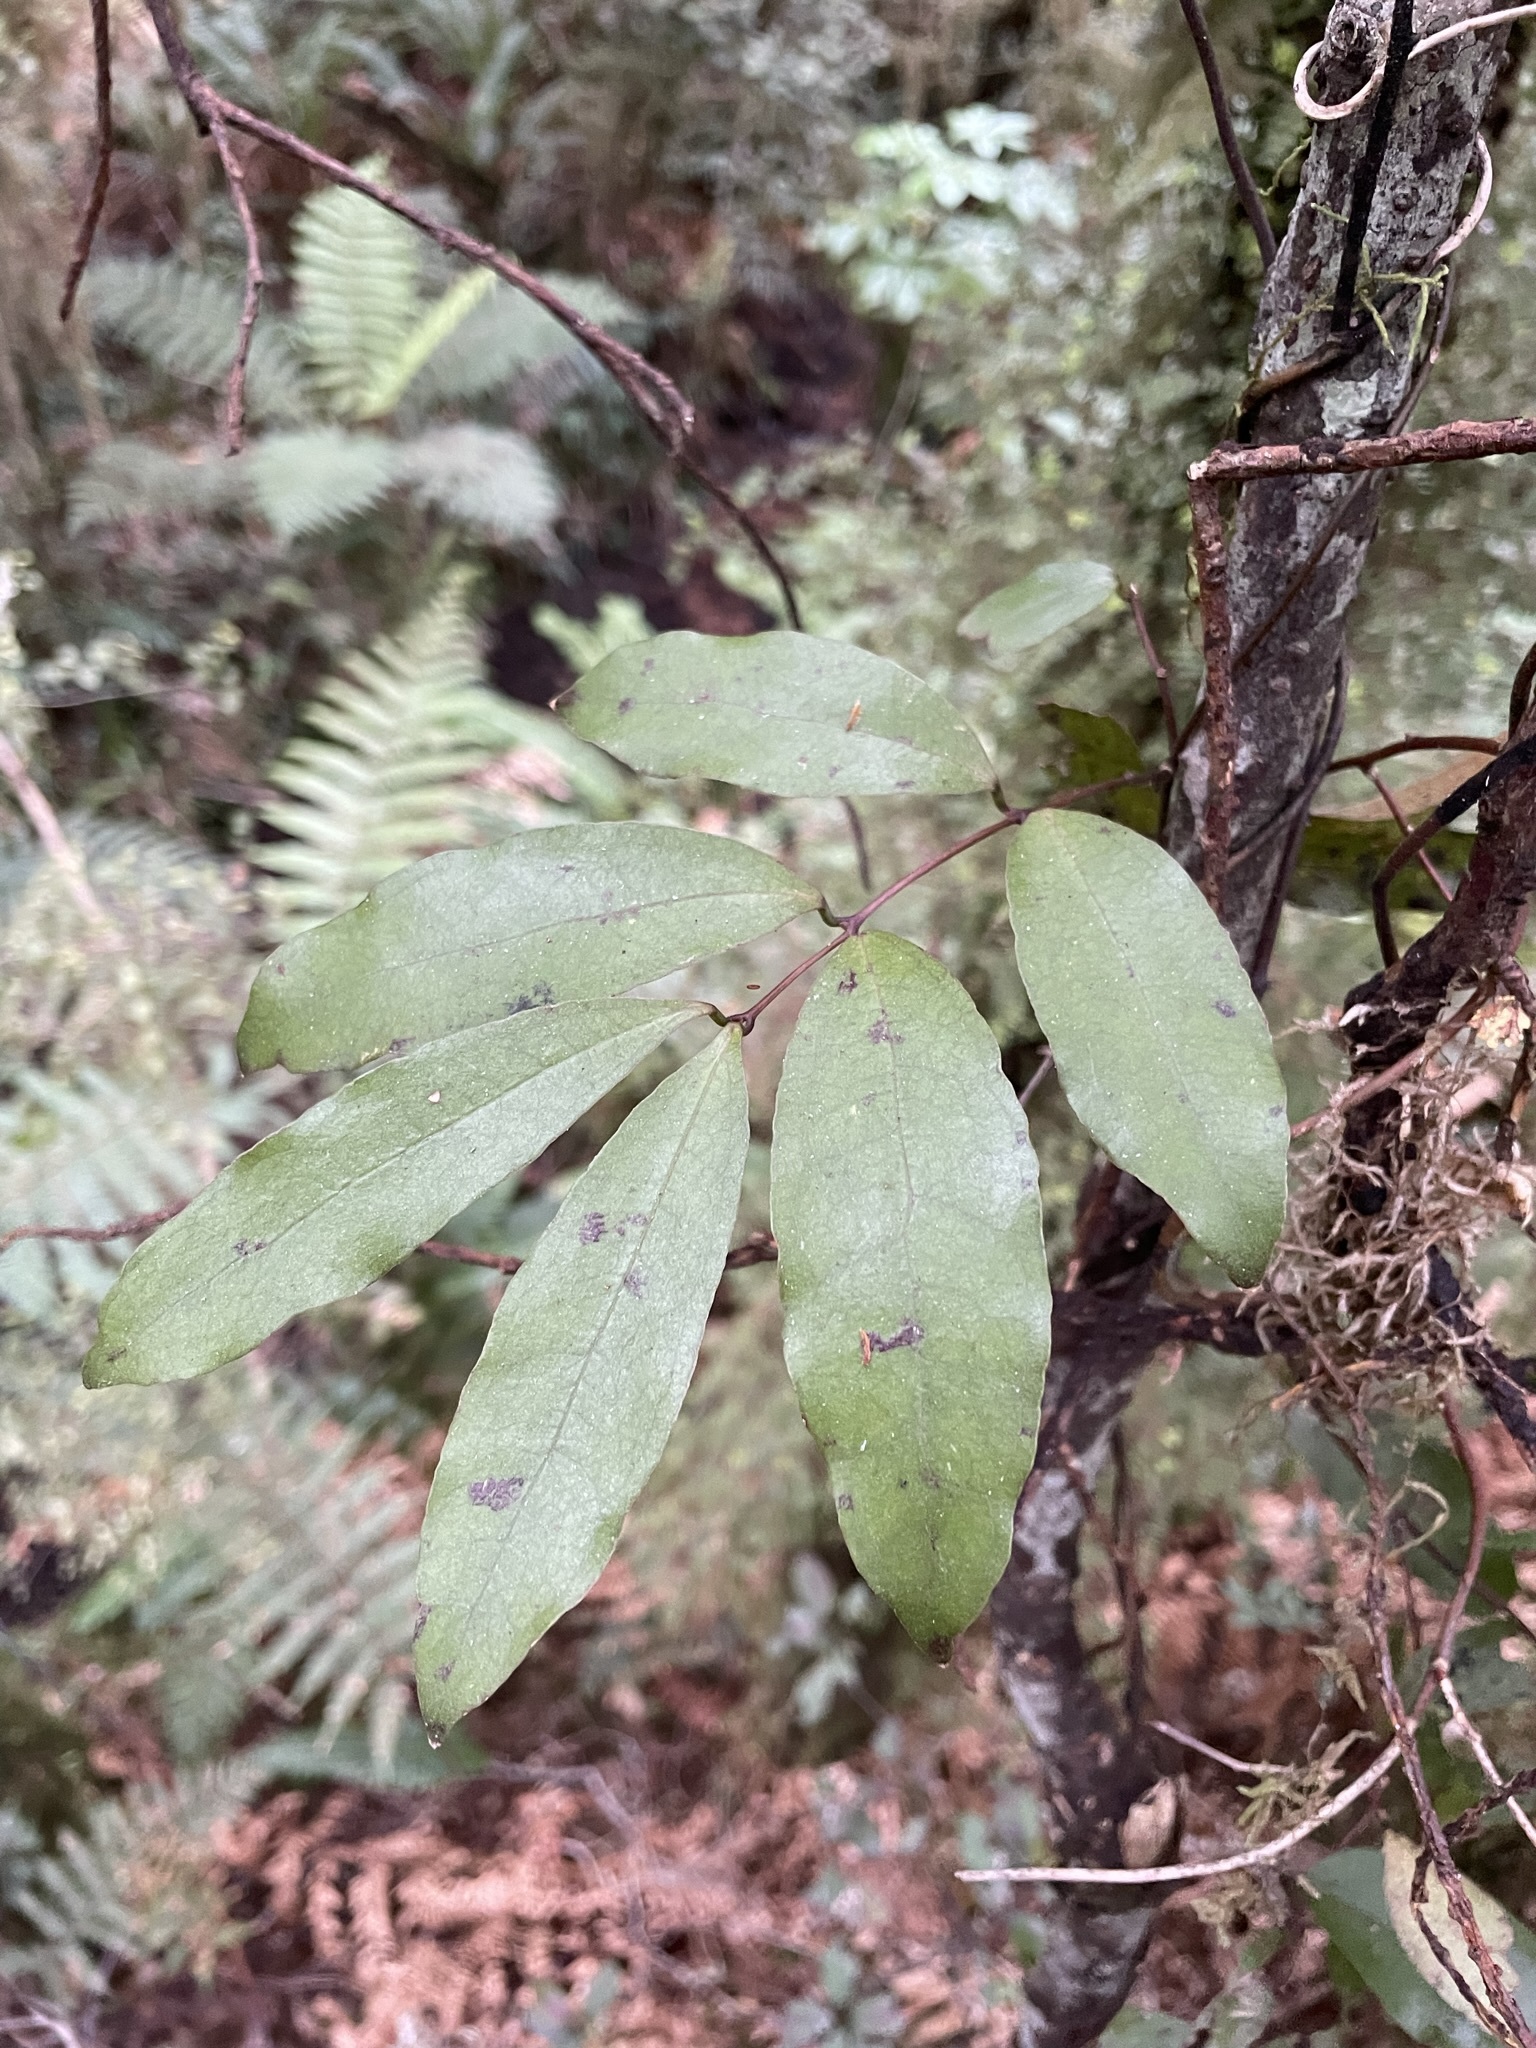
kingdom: Plantae
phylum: Tracheophyta
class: Liliopsida
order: Liliales
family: Ripogonaceae
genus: Ripogonum
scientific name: Ripogonum scandens
